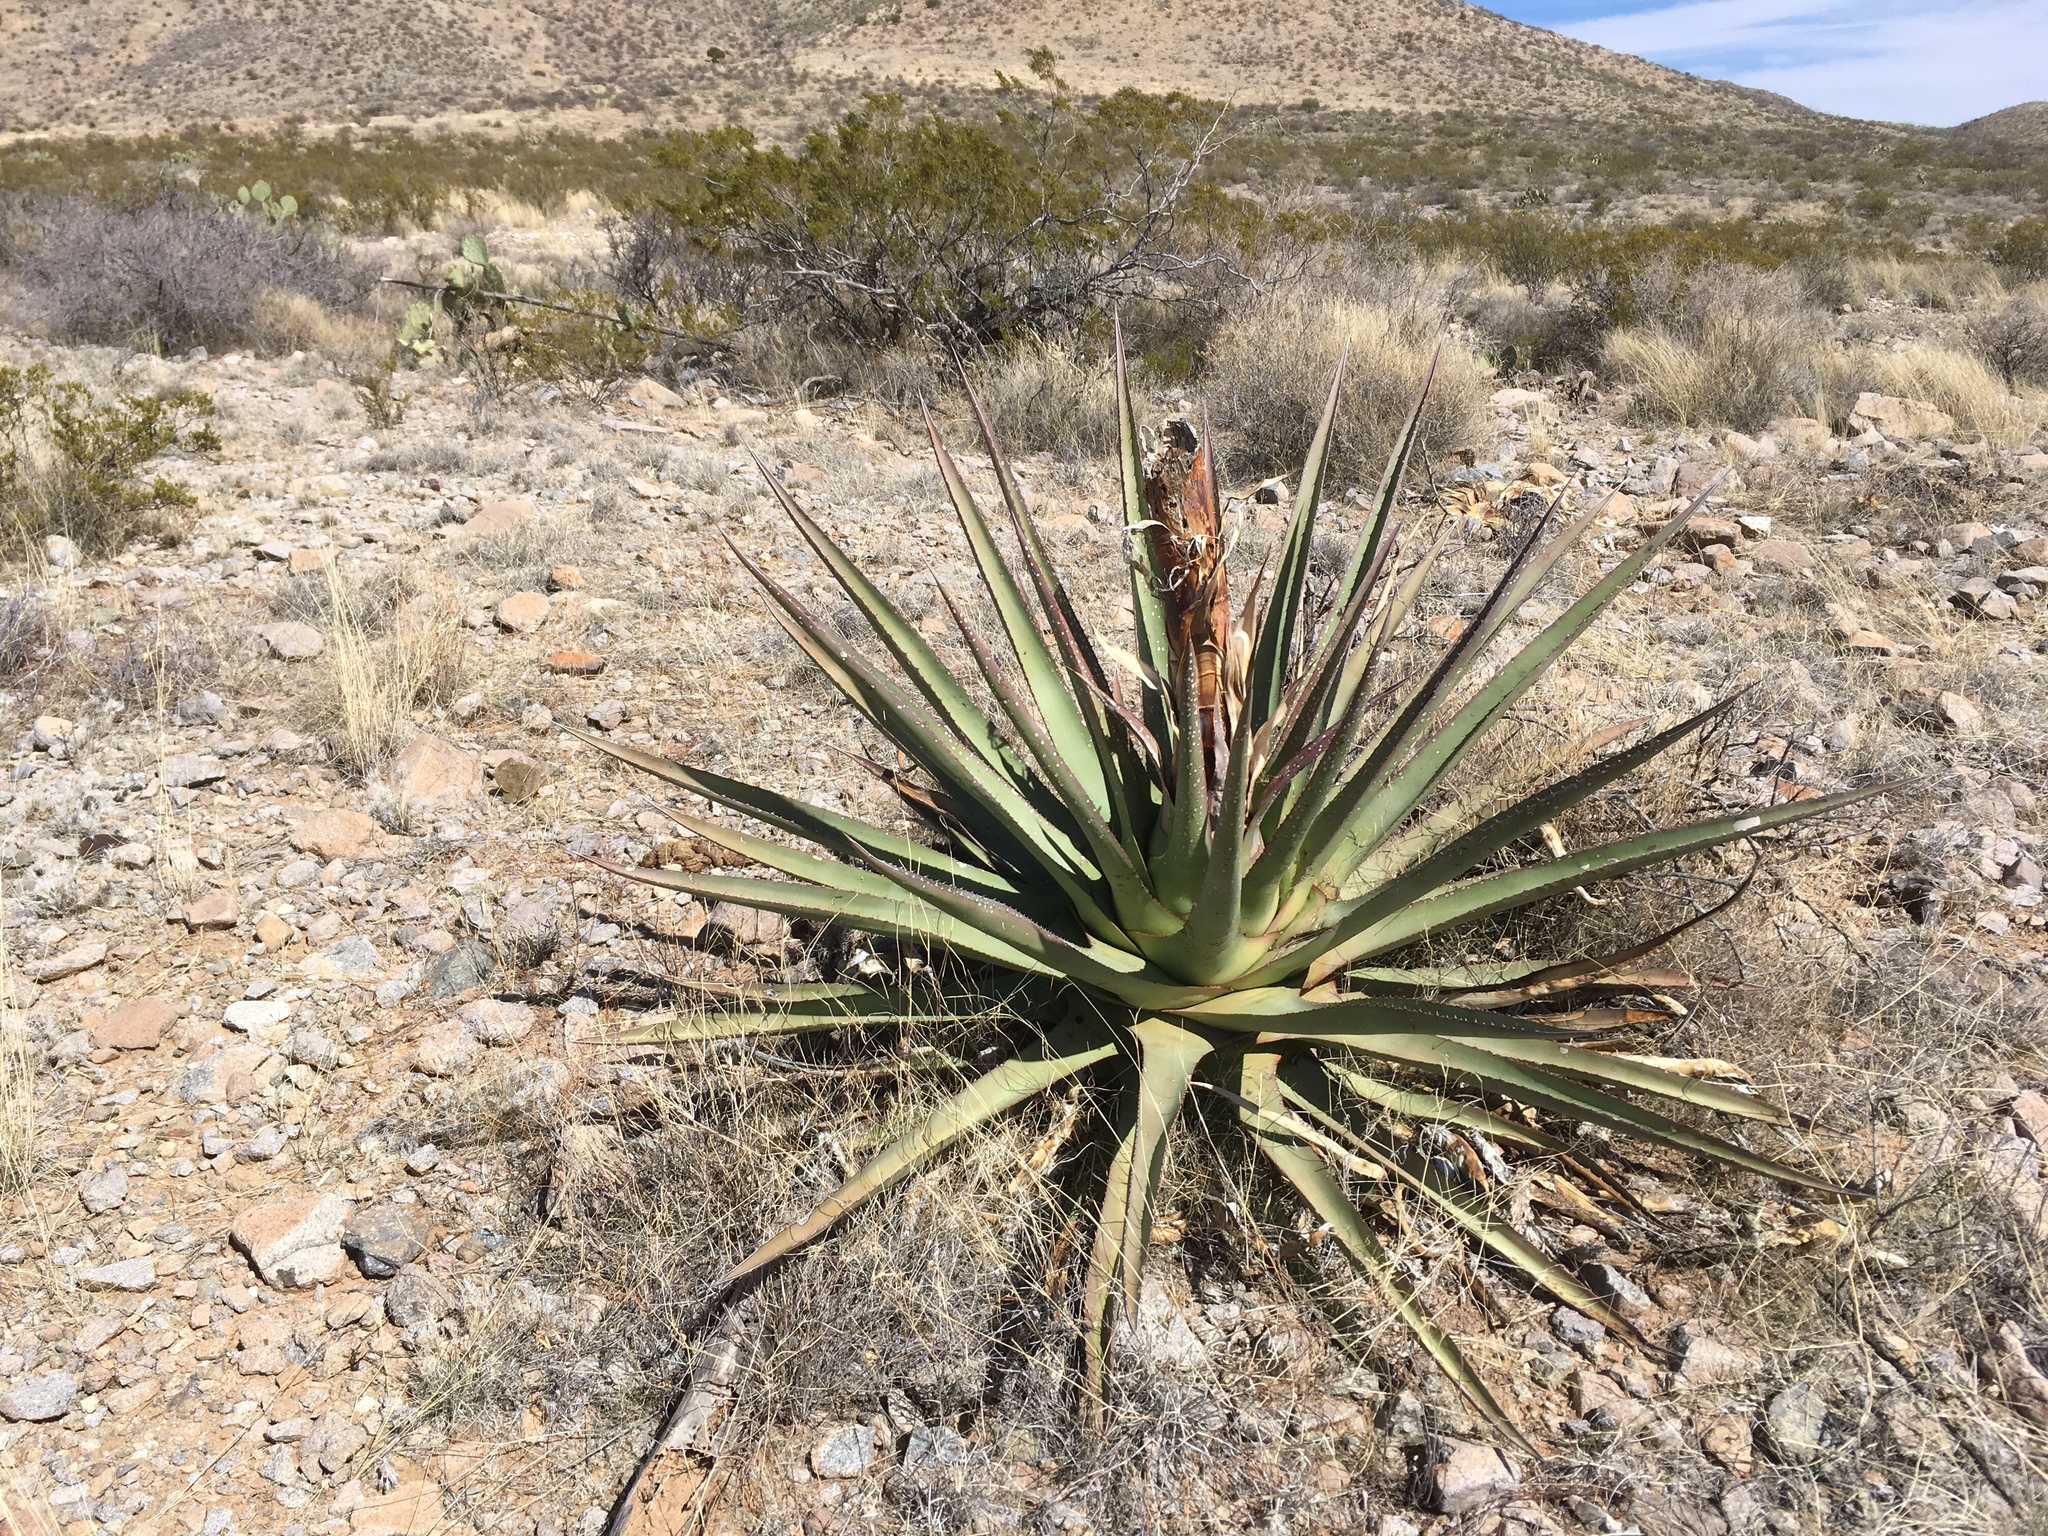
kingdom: Plantae
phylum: Tracheophyta
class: Liliopsida
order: Asparagales
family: Asparagaceae
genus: Agave
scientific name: Agave palmeri
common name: Palmer agave
